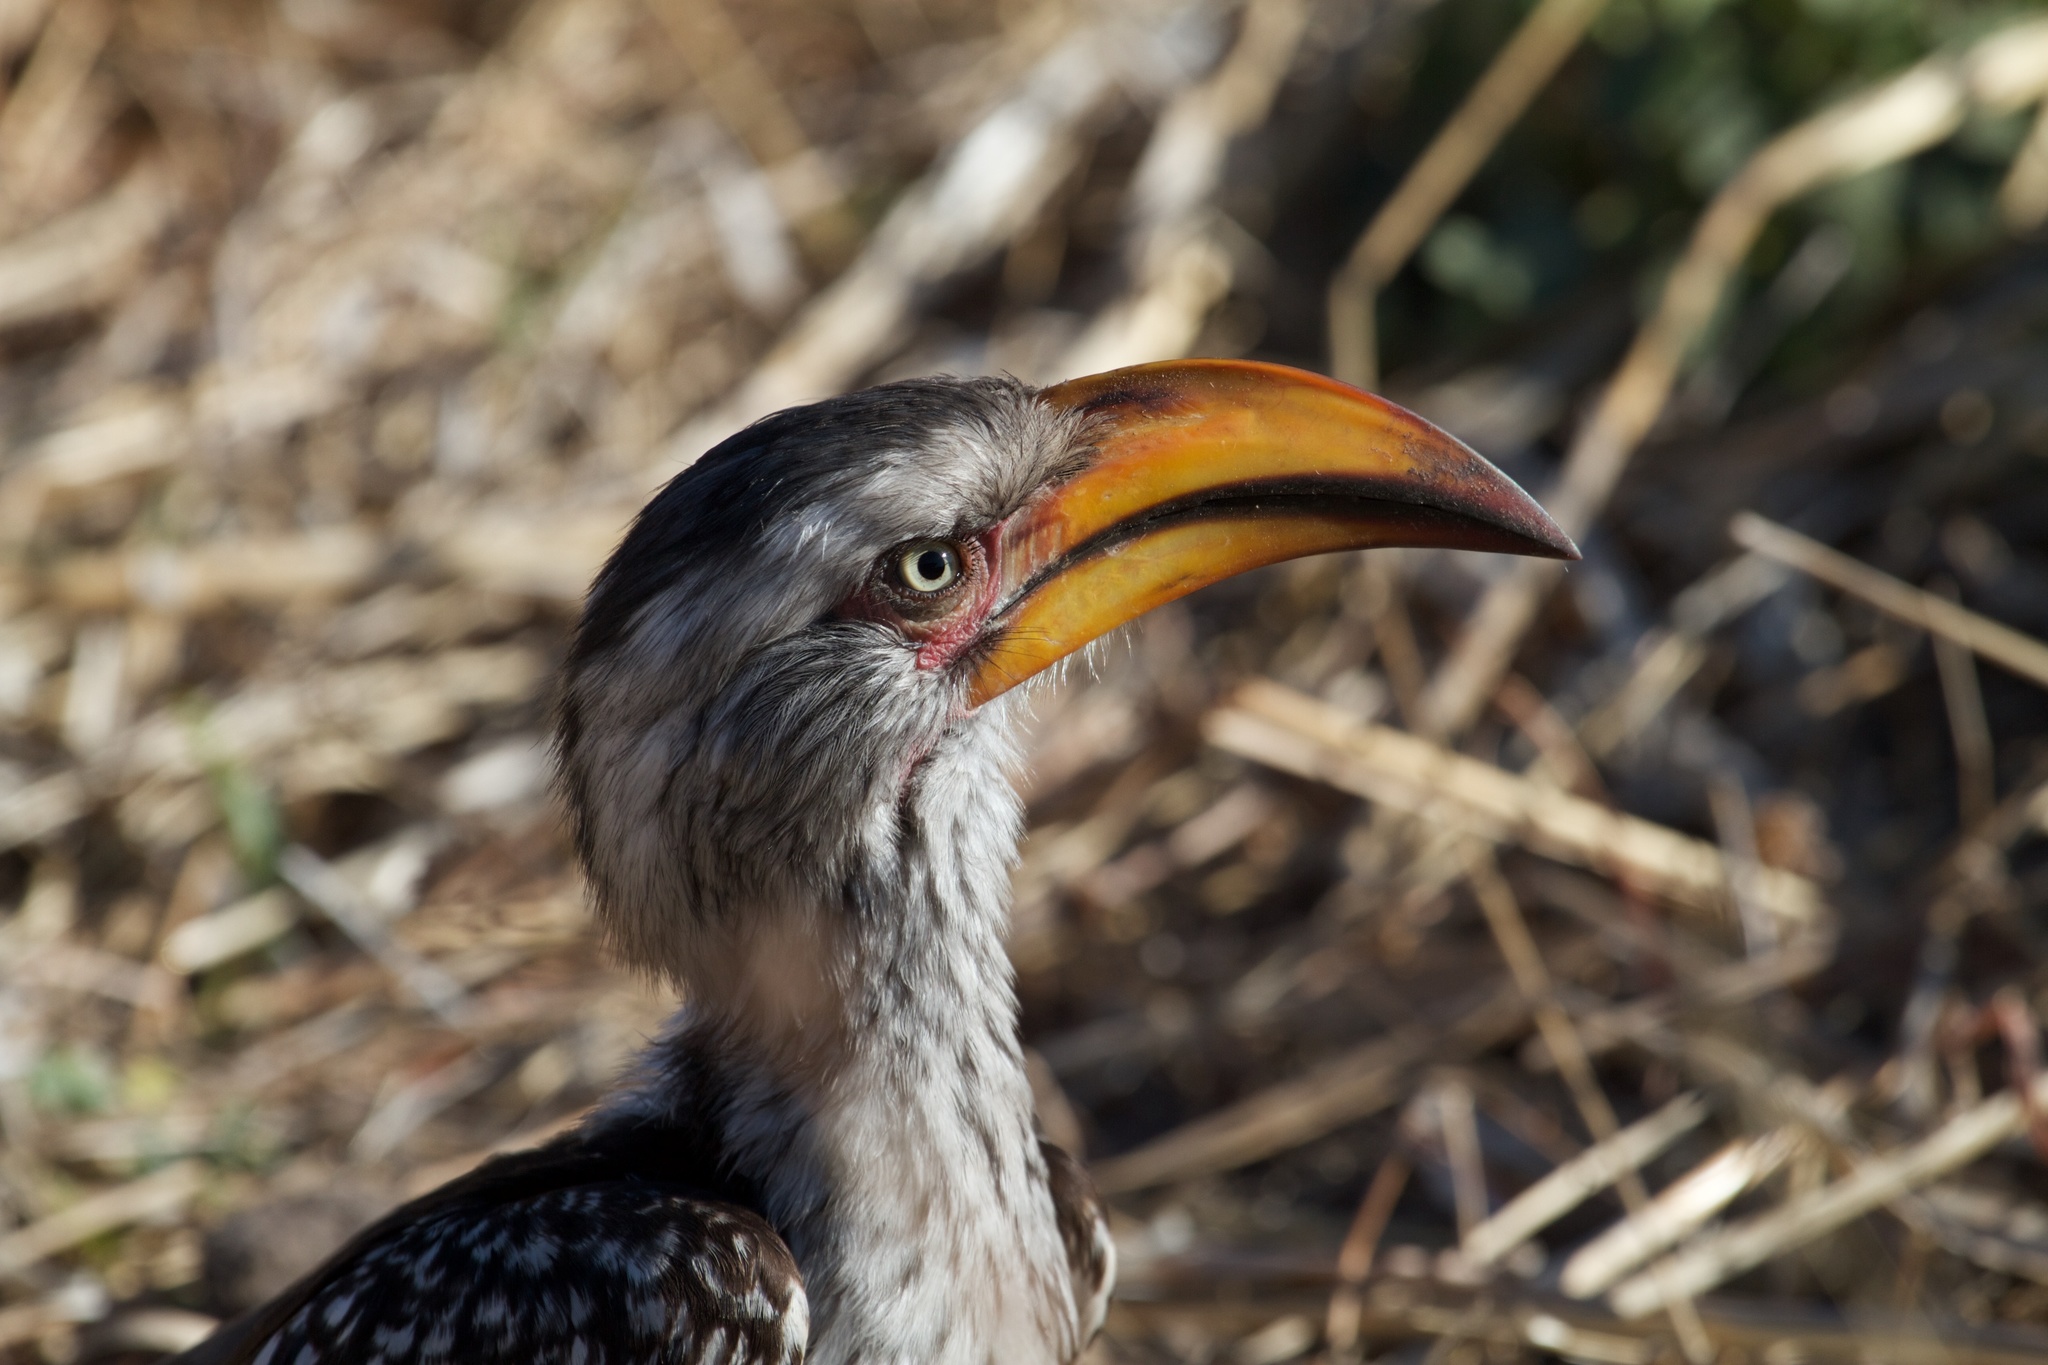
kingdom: Animalia
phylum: Chordata
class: Aves
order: Bucerotiformes
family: Bucerotidae
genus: Tockus
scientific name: Tockus leucomelas
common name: Southern yellow-billed hornbill
